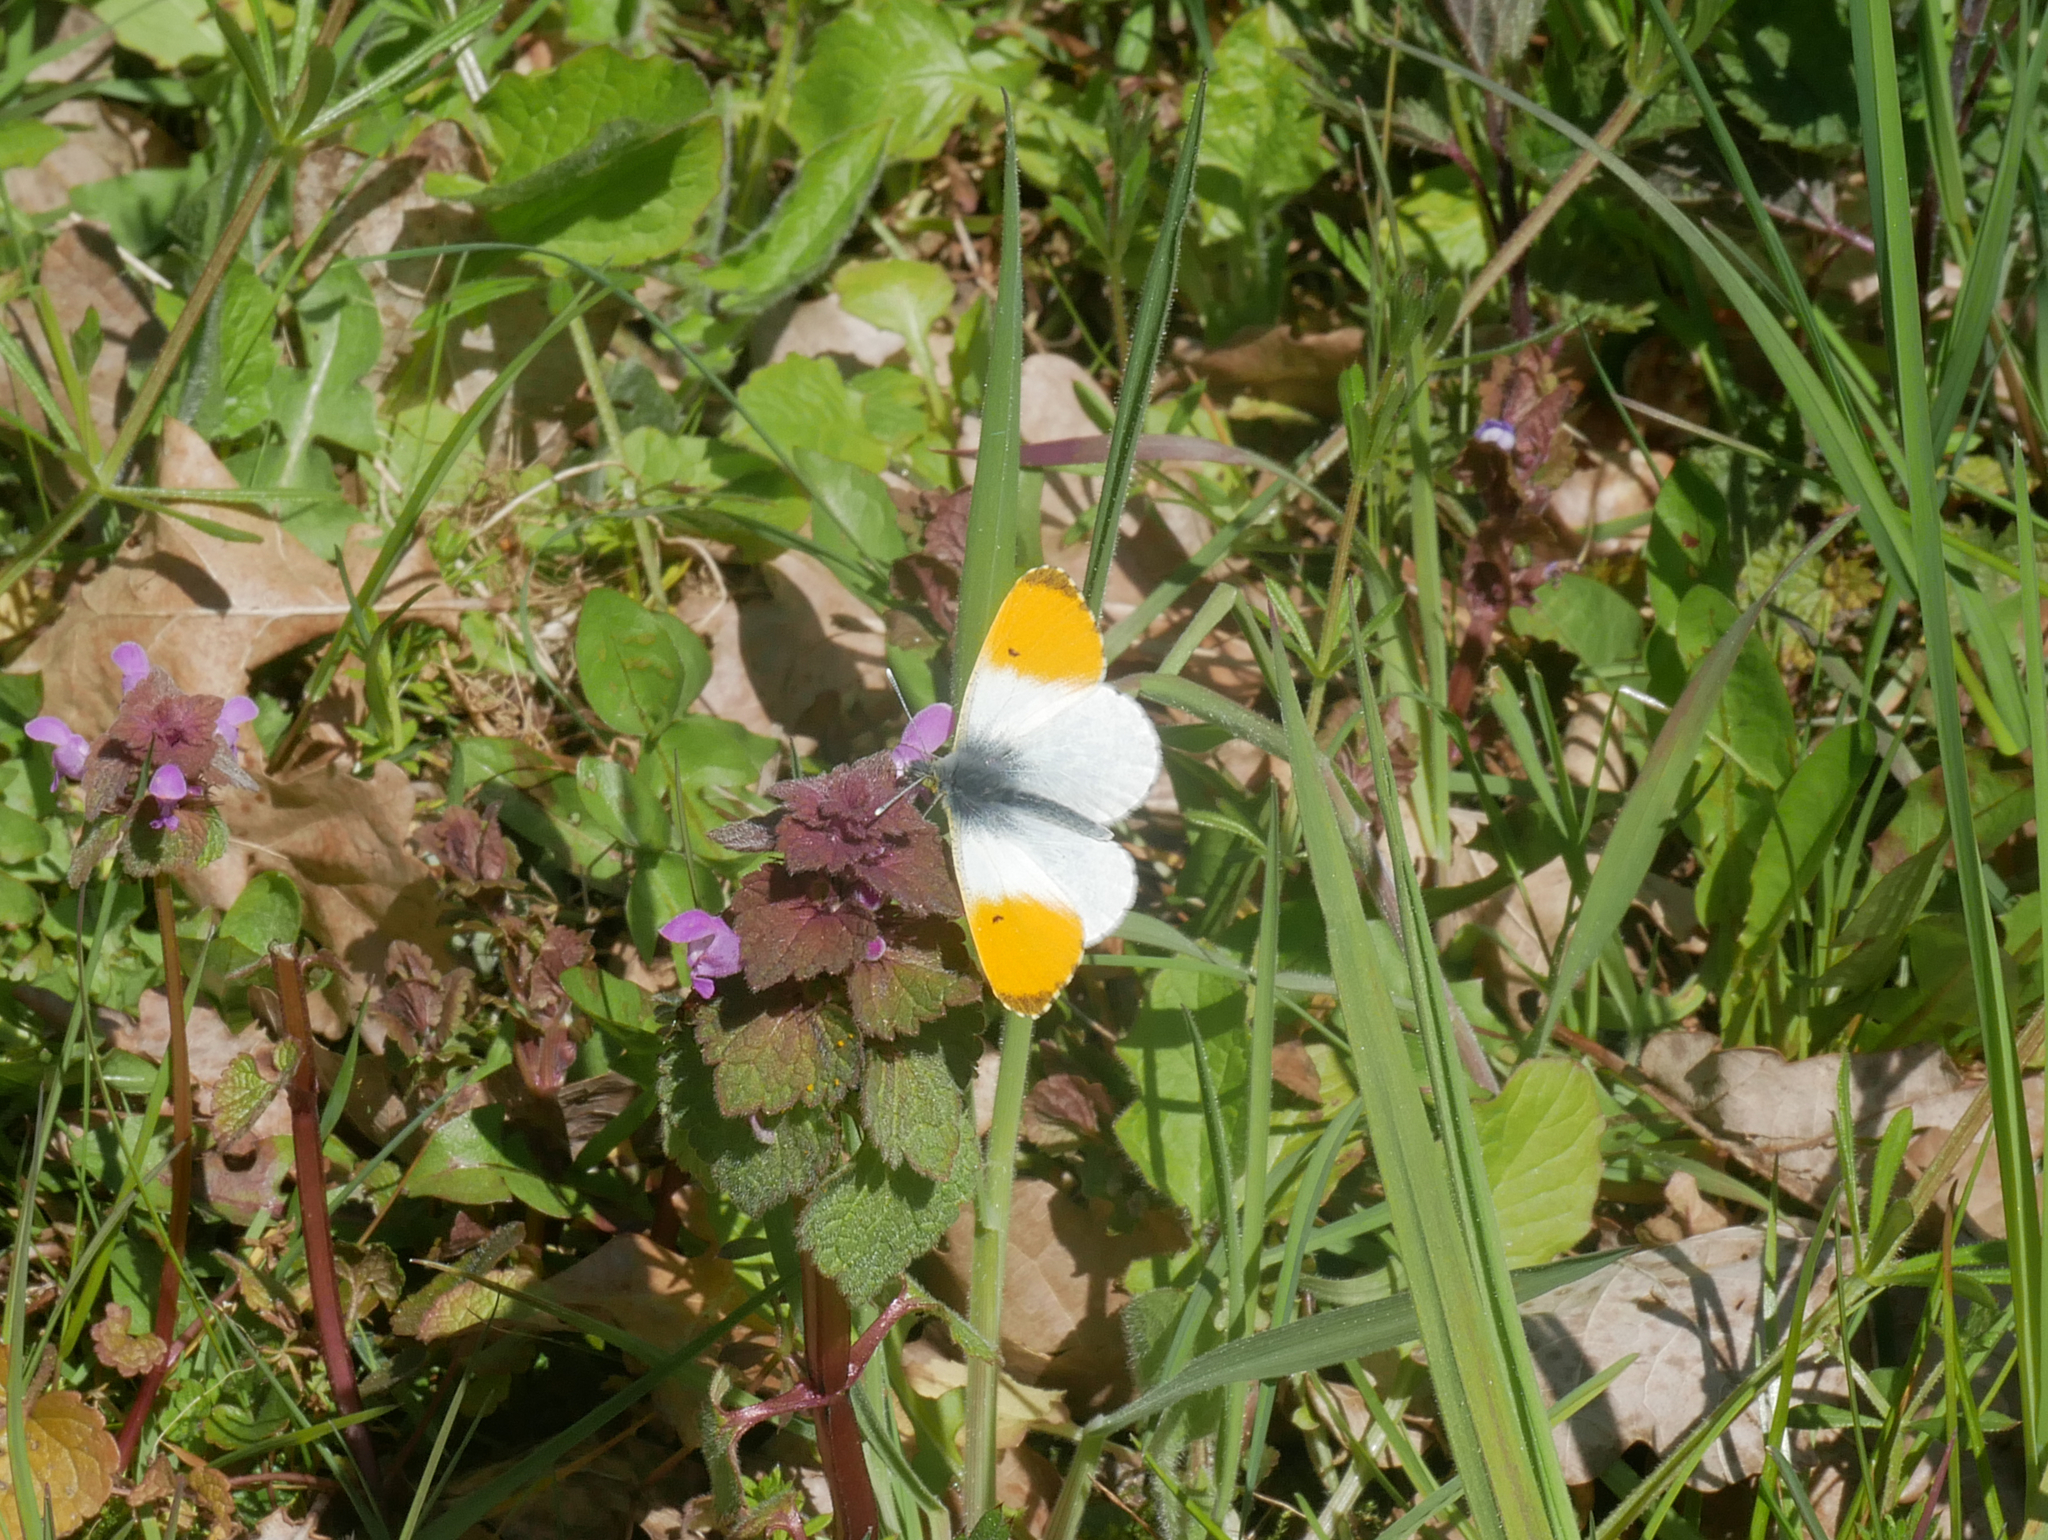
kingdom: Animalia
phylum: Arthropoda
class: Insecta
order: Lepidoptera
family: Pieridae
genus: Anthocharis
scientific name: Anthocharis cardamines
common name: Orange-tip
